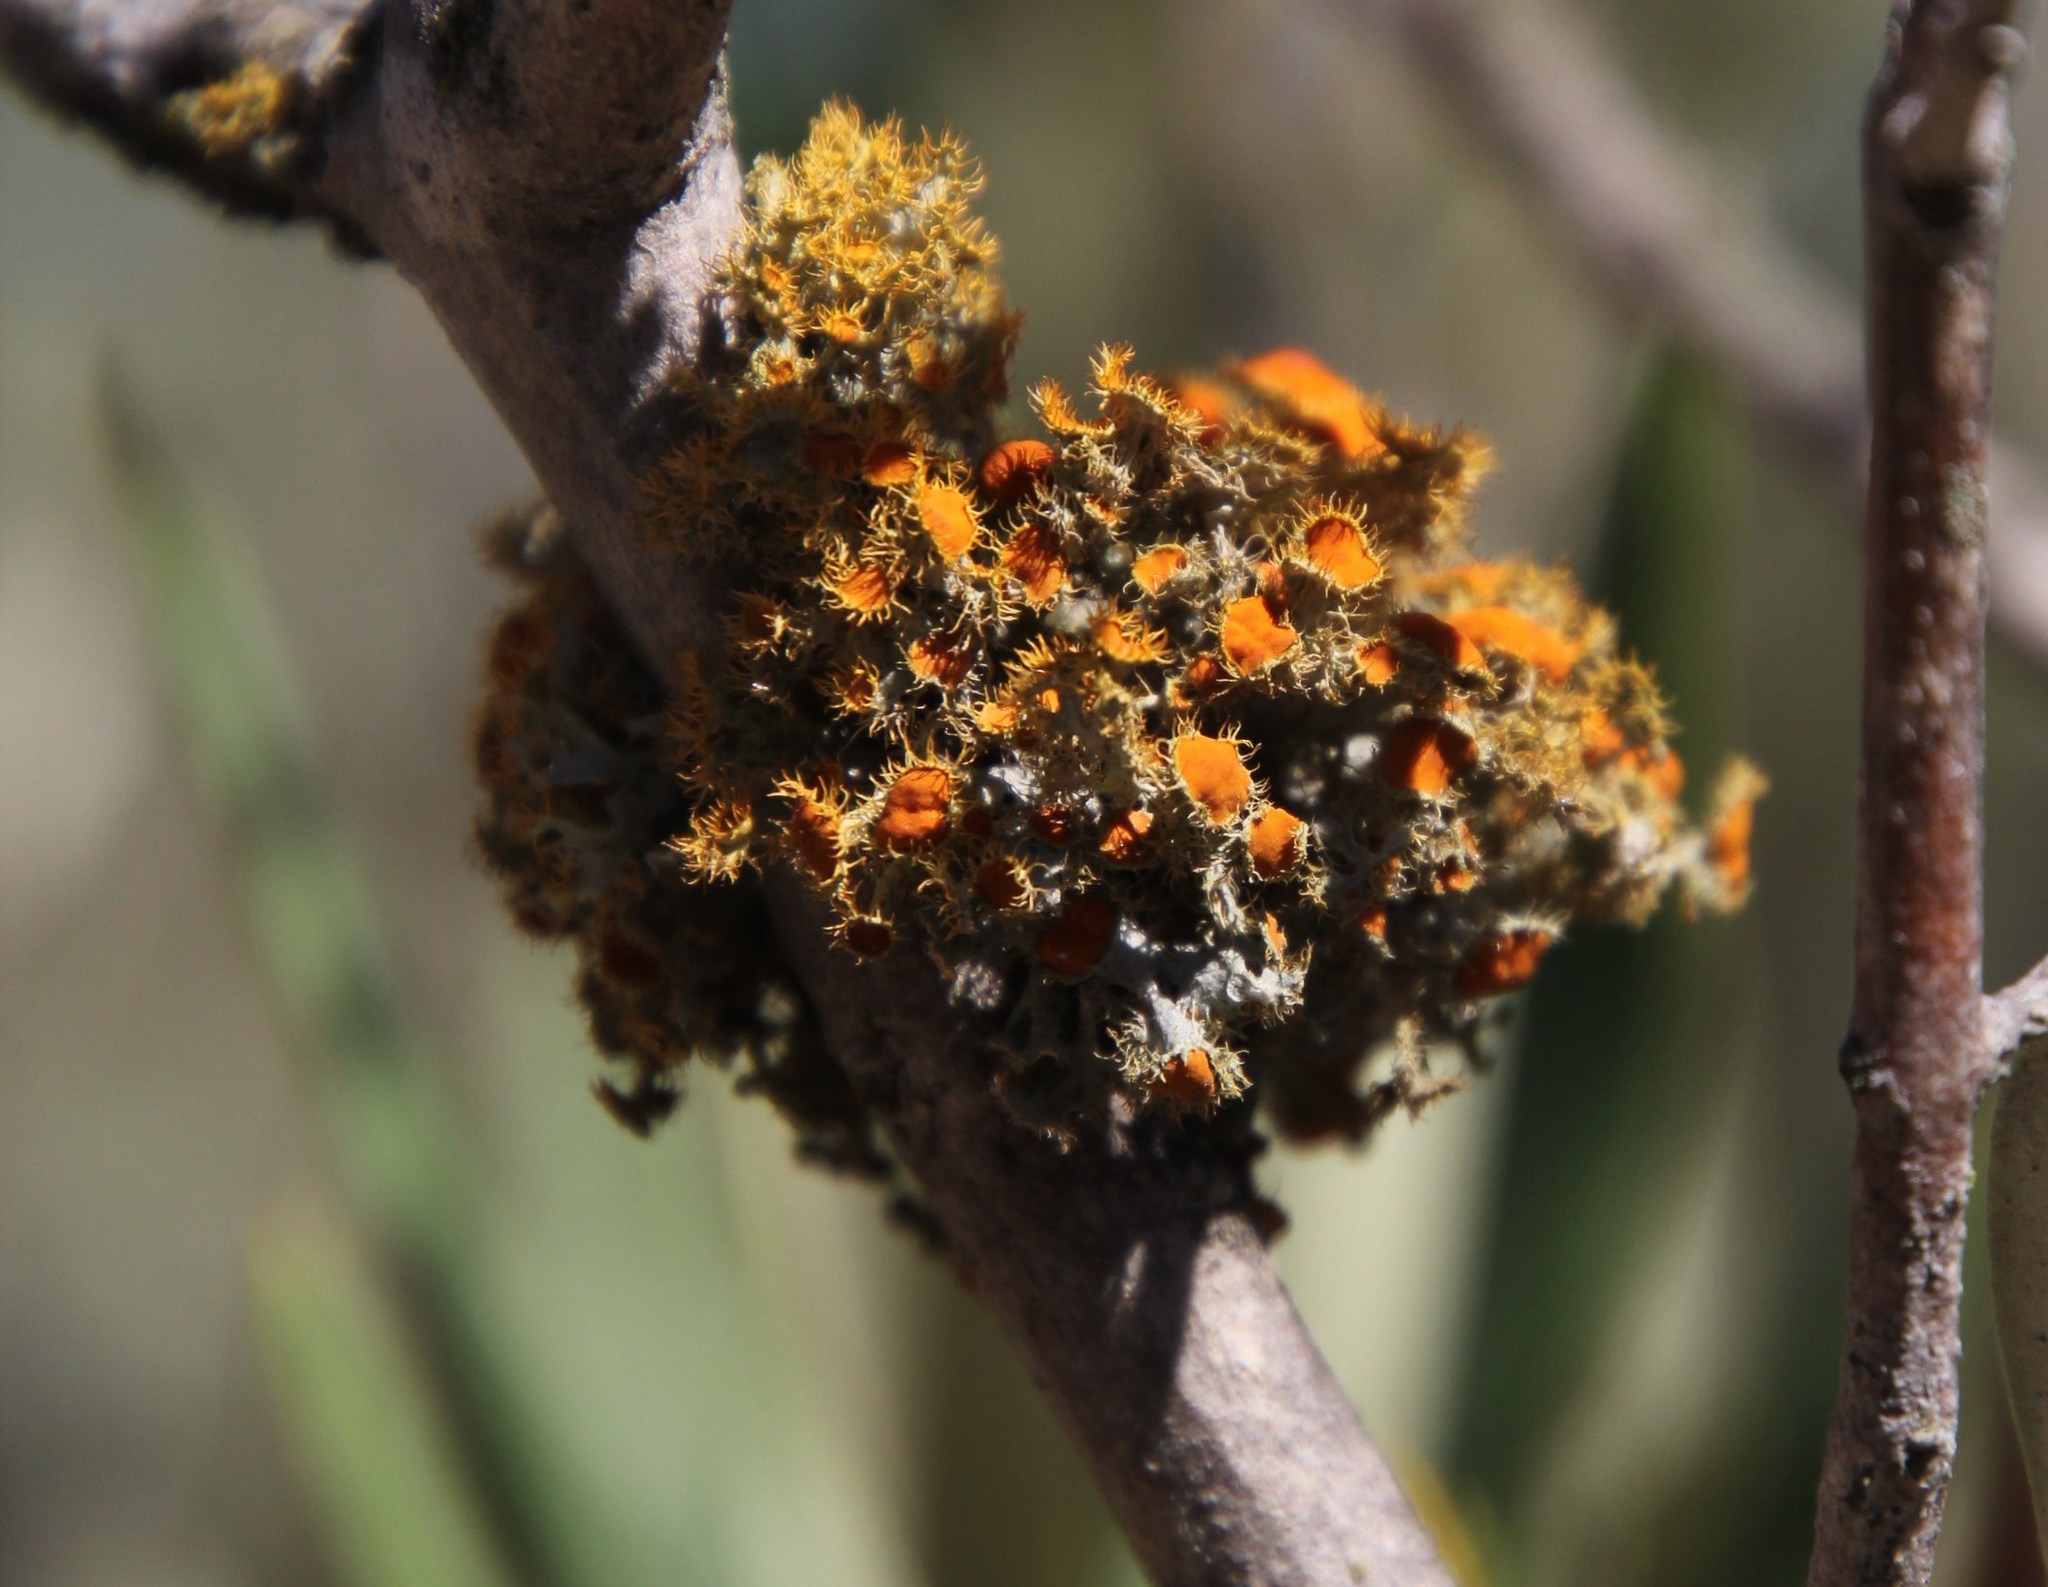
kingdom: Fungi
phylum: Ascomycota
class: Lecanoromycetes
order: Teloschistales
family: Teloschistaceae
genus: Niorma
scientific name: Niorma chrysophthalma
